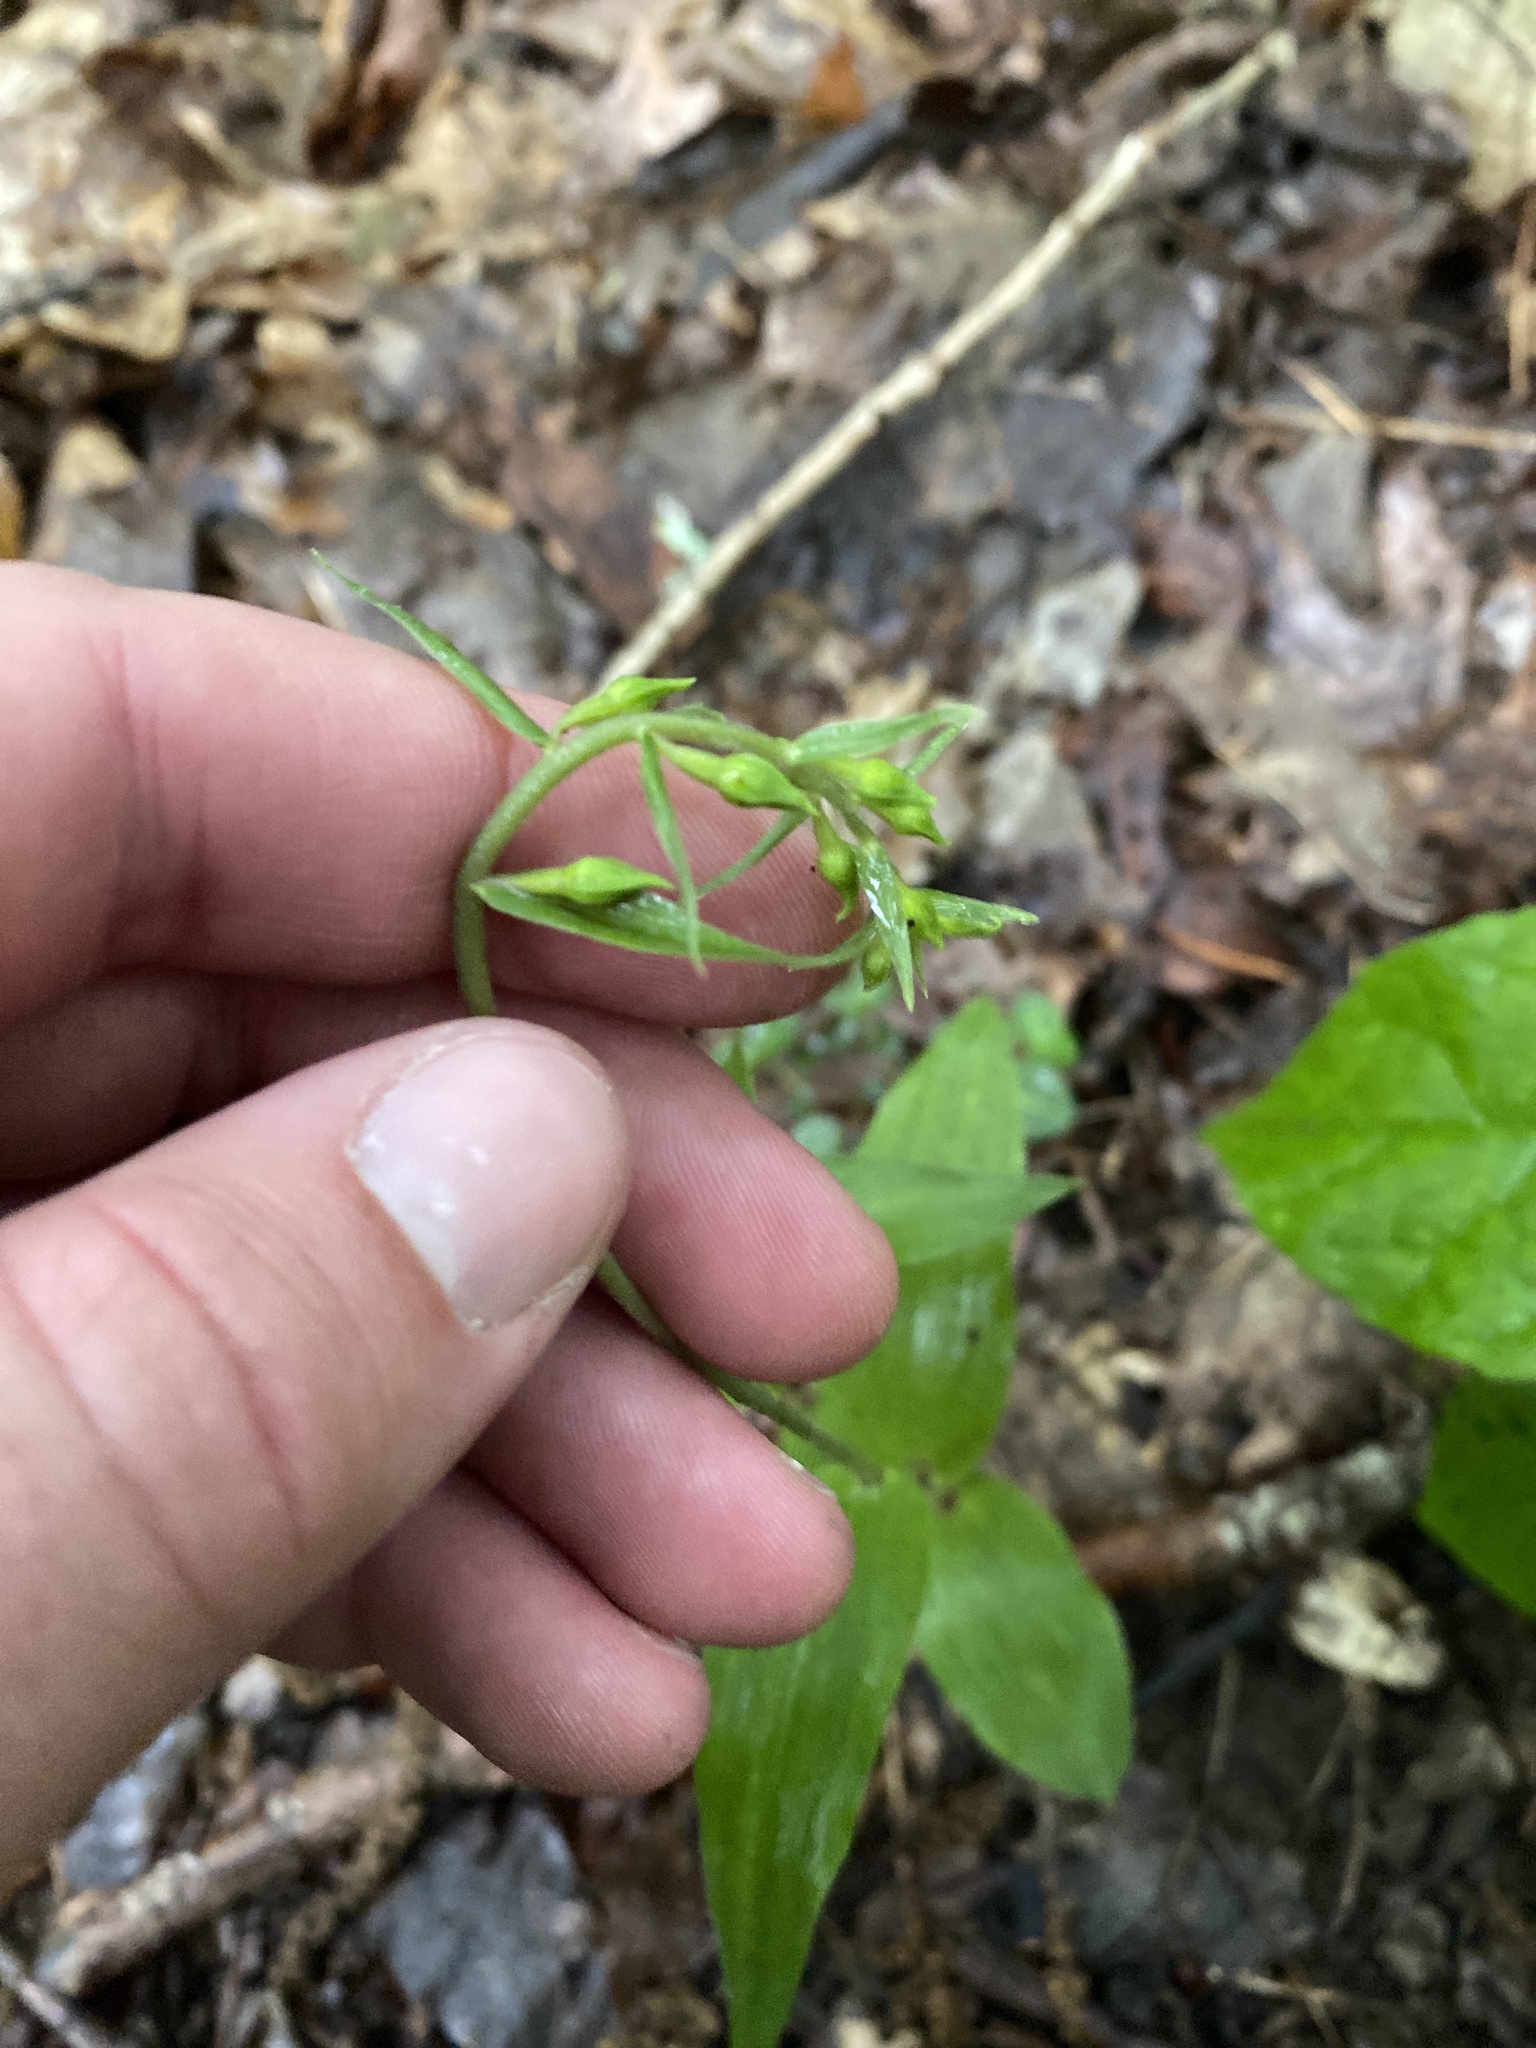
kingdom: Plantae
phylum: Tracheophyta
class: Liliopsida
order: Asparagales
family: Orchidaceae
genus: Epipactis
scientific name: Epipactis helleborine
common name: Broad-leaved helleborine
